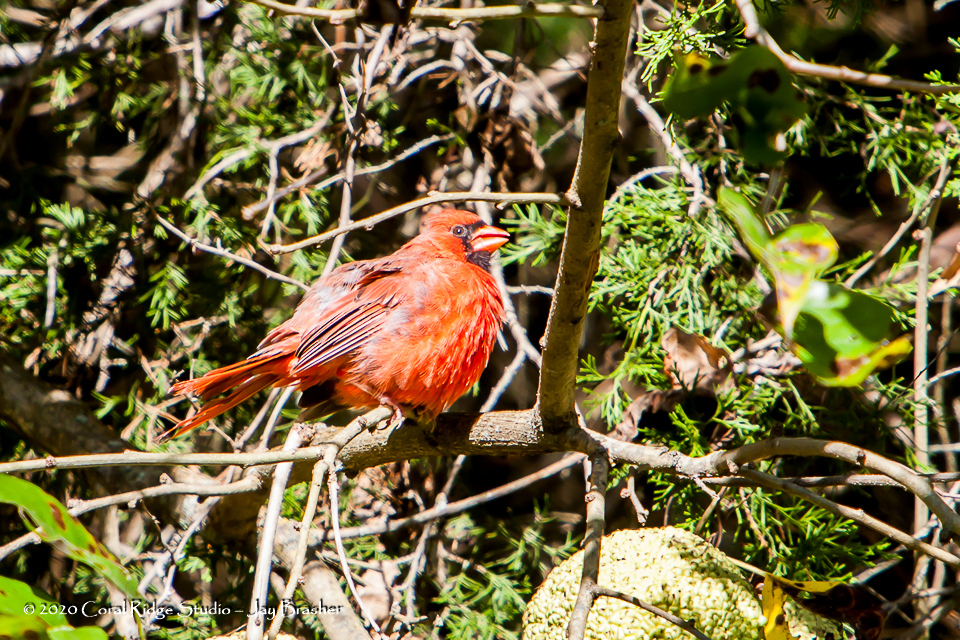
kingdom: Animalia
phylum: Chordata
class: Aves
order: Passeriformes
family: Cardinalidae
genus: Cardinalis
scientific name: Cardinalis cardinalis
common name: Northern cardinal
